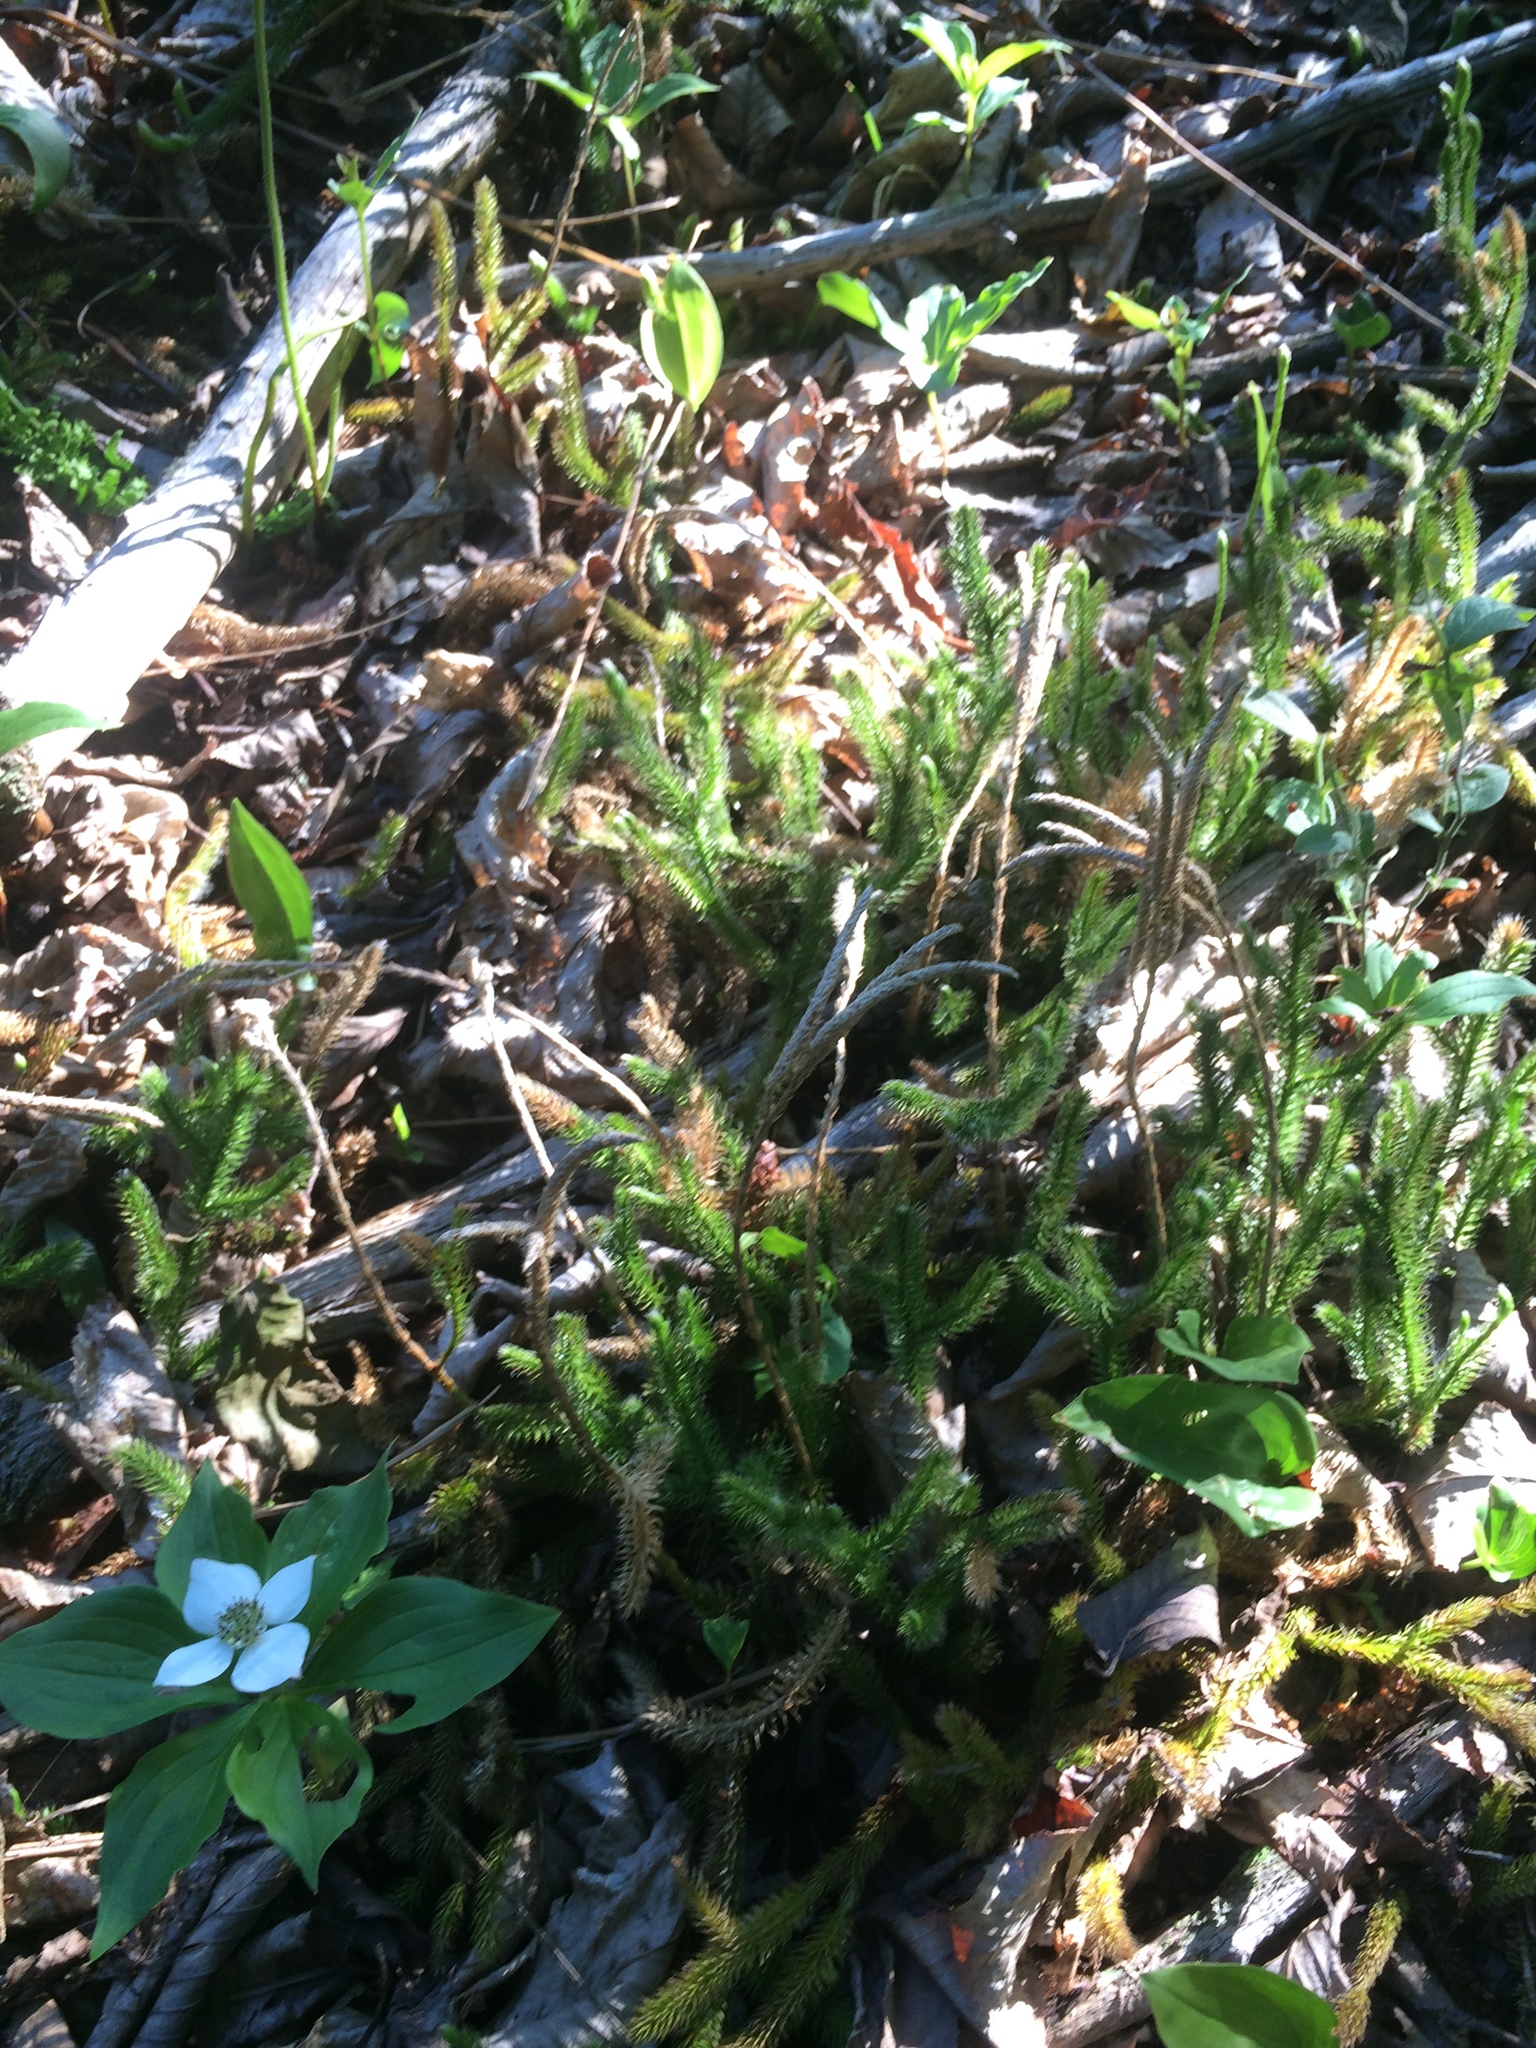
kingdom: Plantae
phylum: Tracheophyta
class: Lycopodiopsida
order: Lycopodiales
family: Lycopodiaceae
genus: Lycopodium
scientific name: Lycopodium clavatum
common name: Stag's-horn clubmoss
